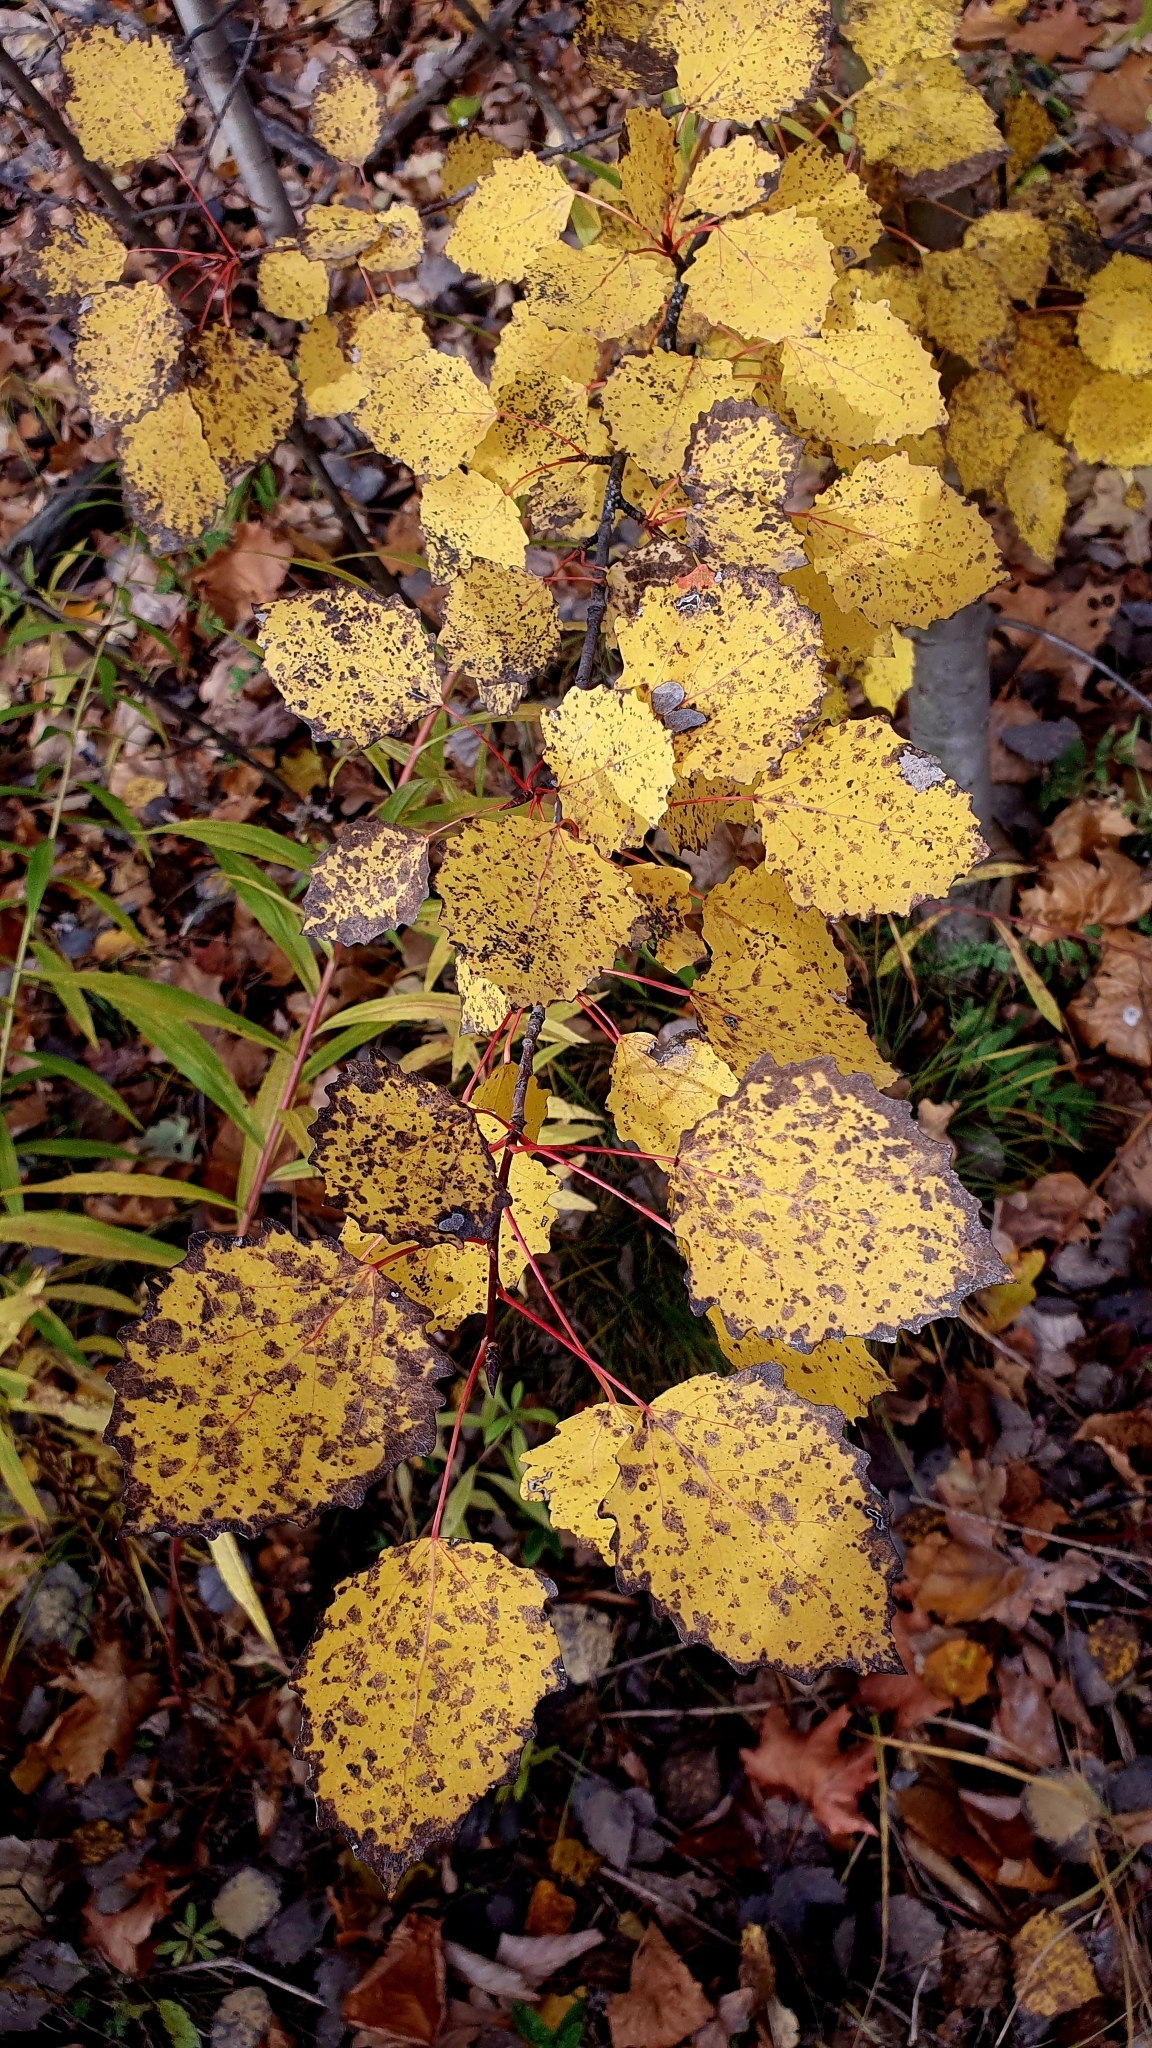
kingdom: Plantae
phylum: Tracheophyta
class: Magnoliopsida
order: Malpighiales
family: Salicaceae
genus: Populus
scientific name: Populus tremula
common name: European aspen
